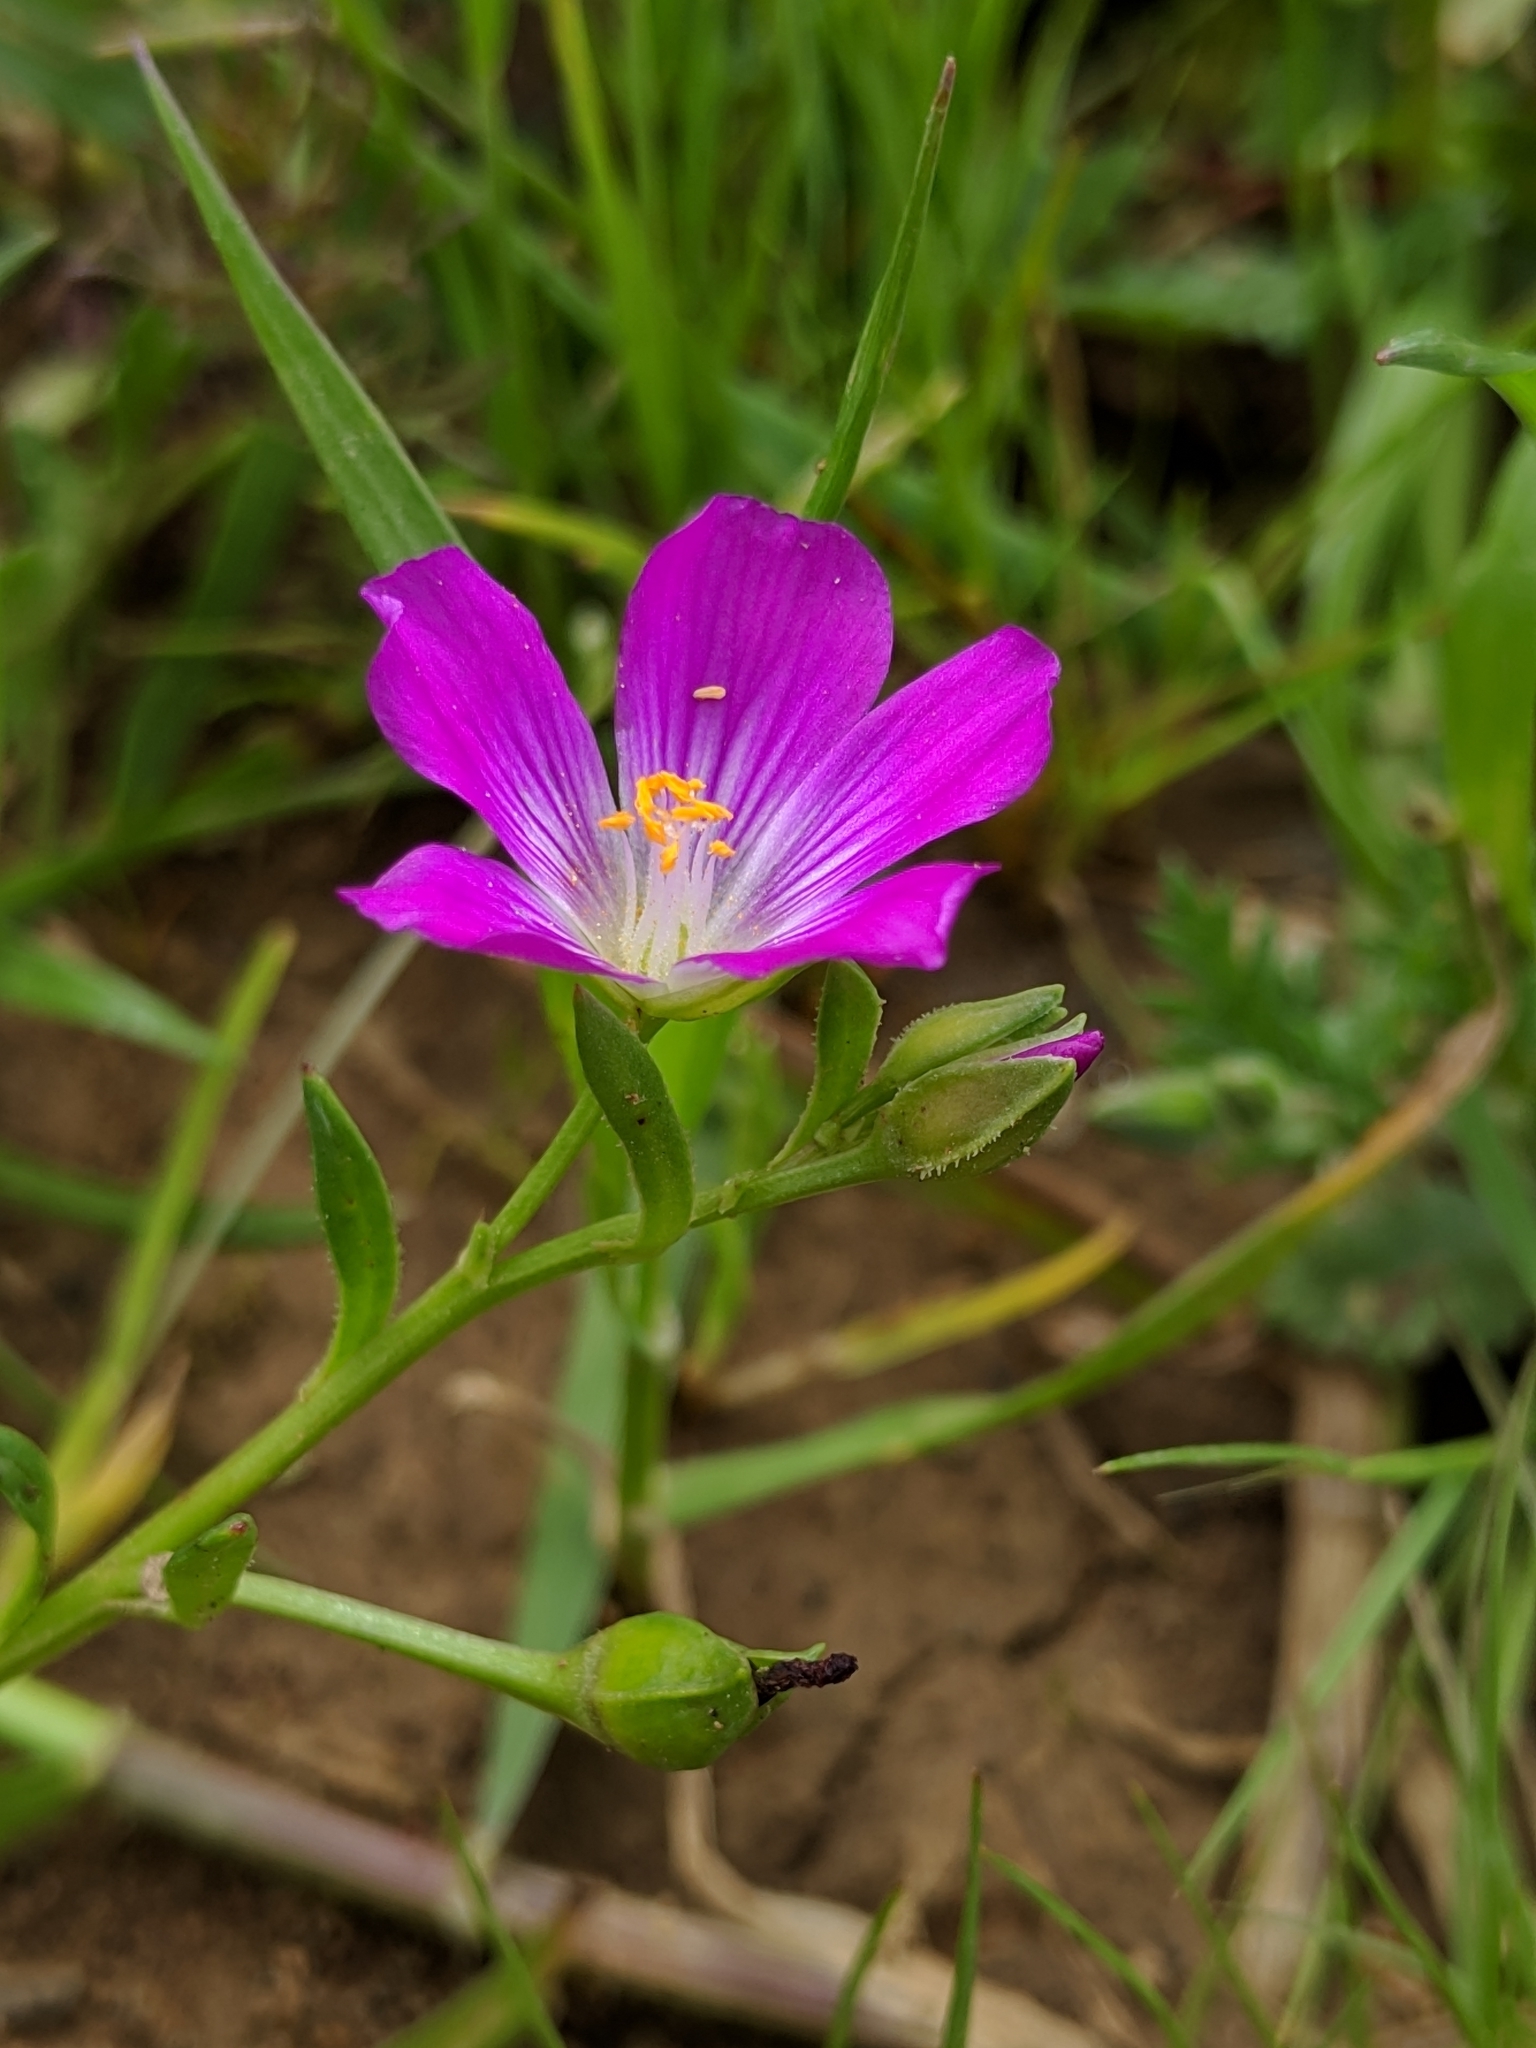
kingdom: Plantae
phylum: Tracheophyta
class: Magnoliopsida
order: Caryophyllales
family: Montiaceae
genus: Calandrinia
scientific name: Calandrinia menziesii
